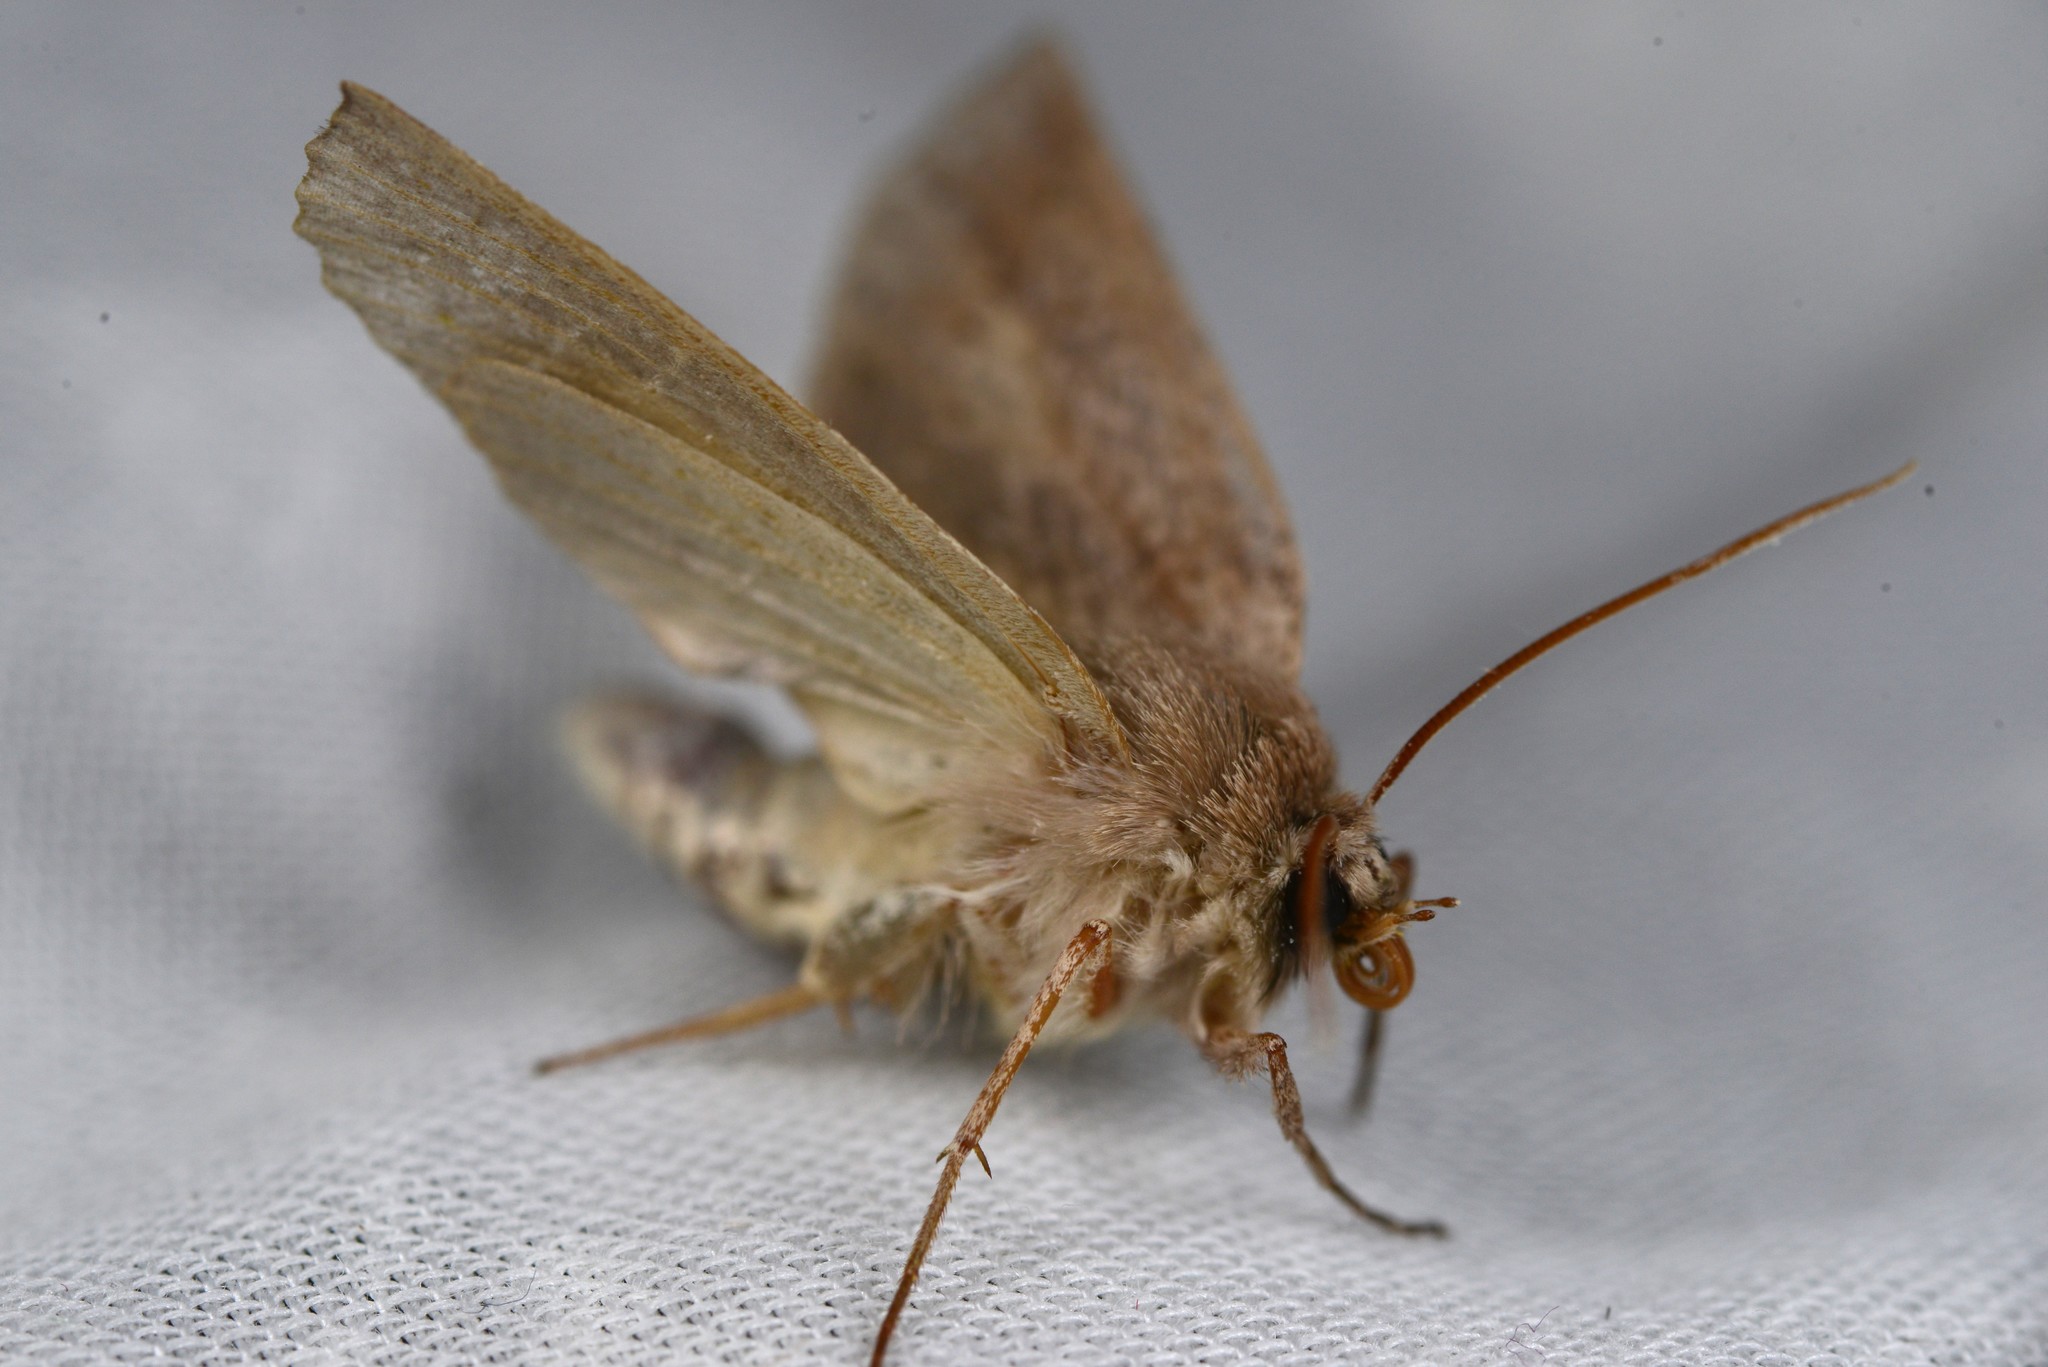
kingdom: Animalia
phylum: Arthropoda
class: Insecta
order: Lepidoptera
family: Geometridae
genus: Declana
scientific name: Declana leptomera
